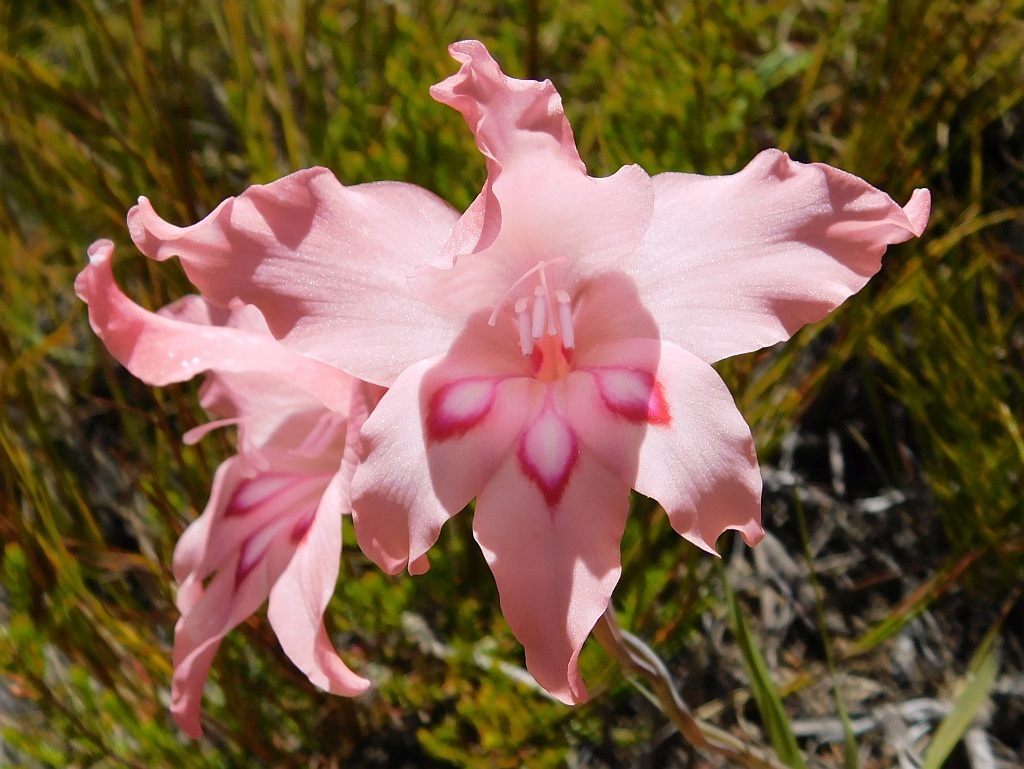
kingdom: Plantae
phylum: Tracheophyta
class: Liliopsida
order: Asparagales
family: Iridaceae
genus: Gladiolus
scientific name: Gladiolus carneus
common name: Painted-lady
